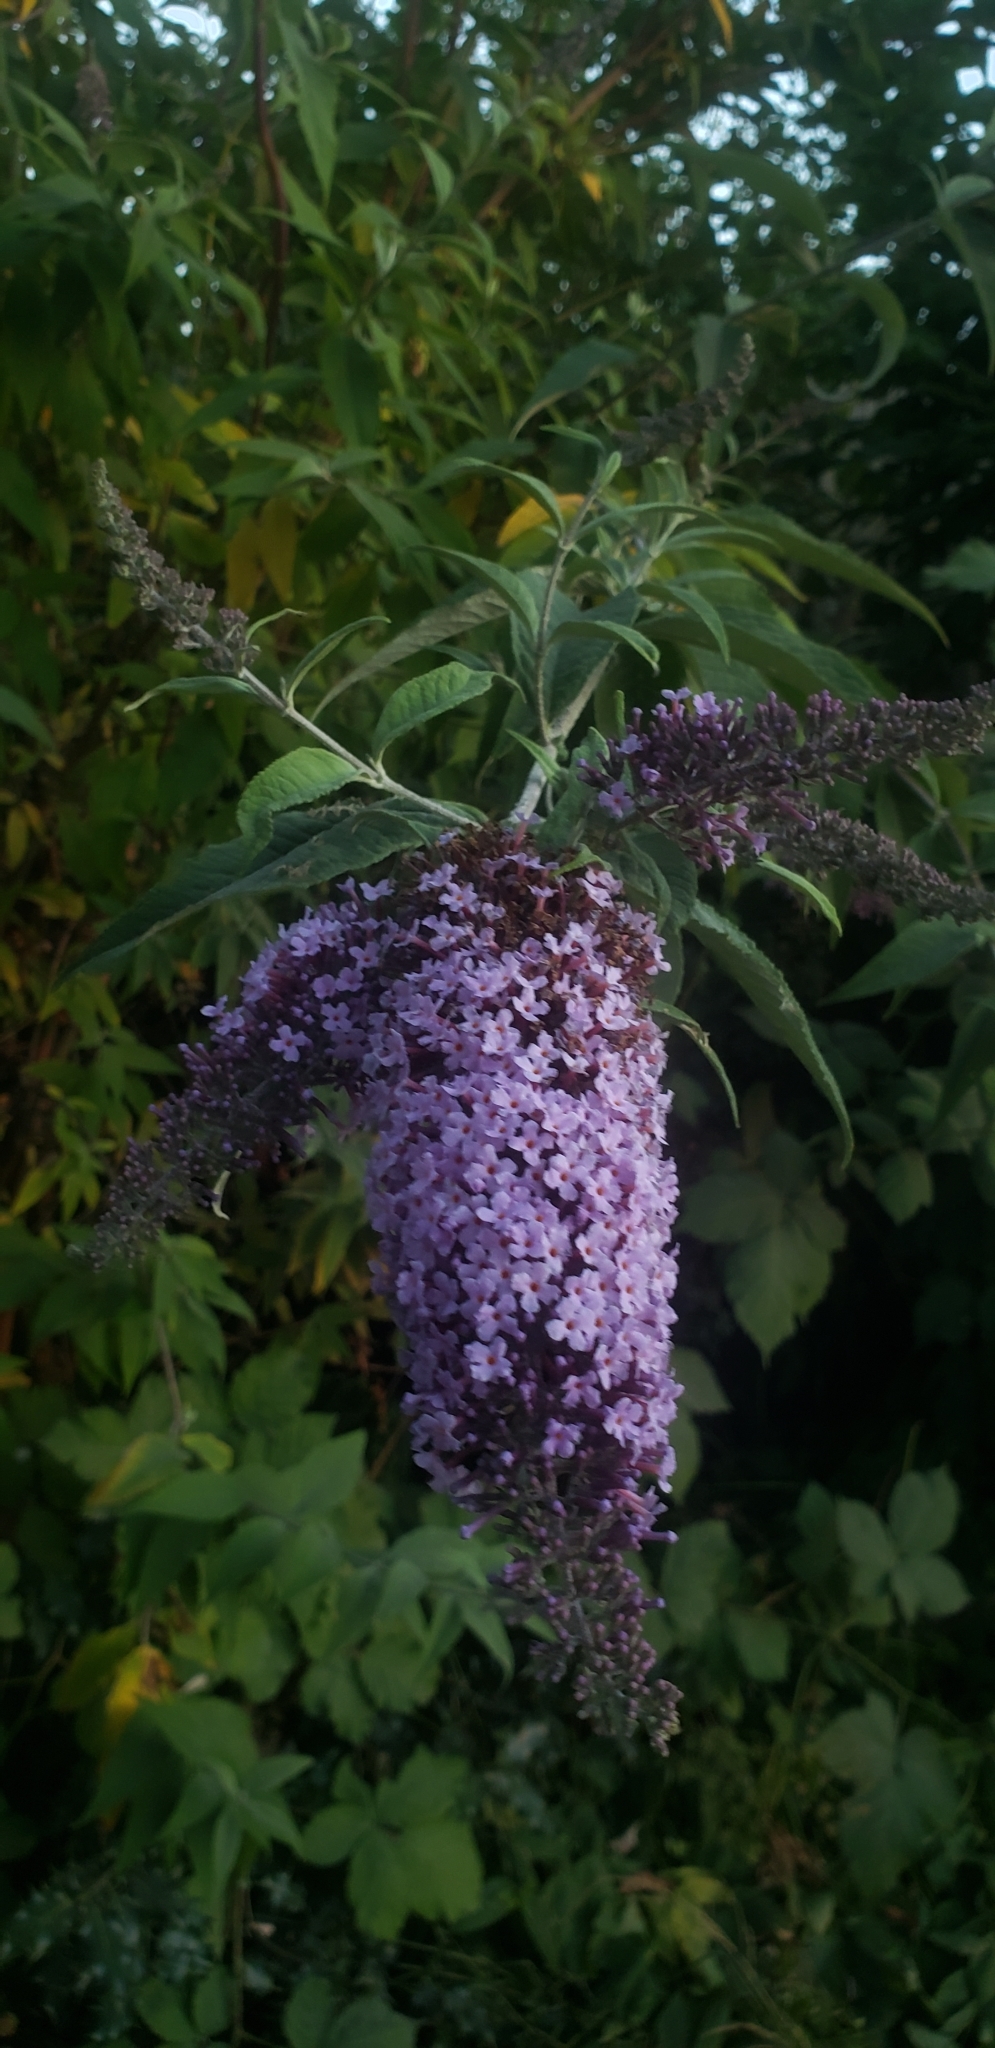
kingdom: Plantae
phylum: Tracheophyta
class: Magnoliopsida
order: Lamiales
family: Scrophulariaceae
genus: Buddleja
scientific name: Buddleja davidii
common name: Butterfly-bush
